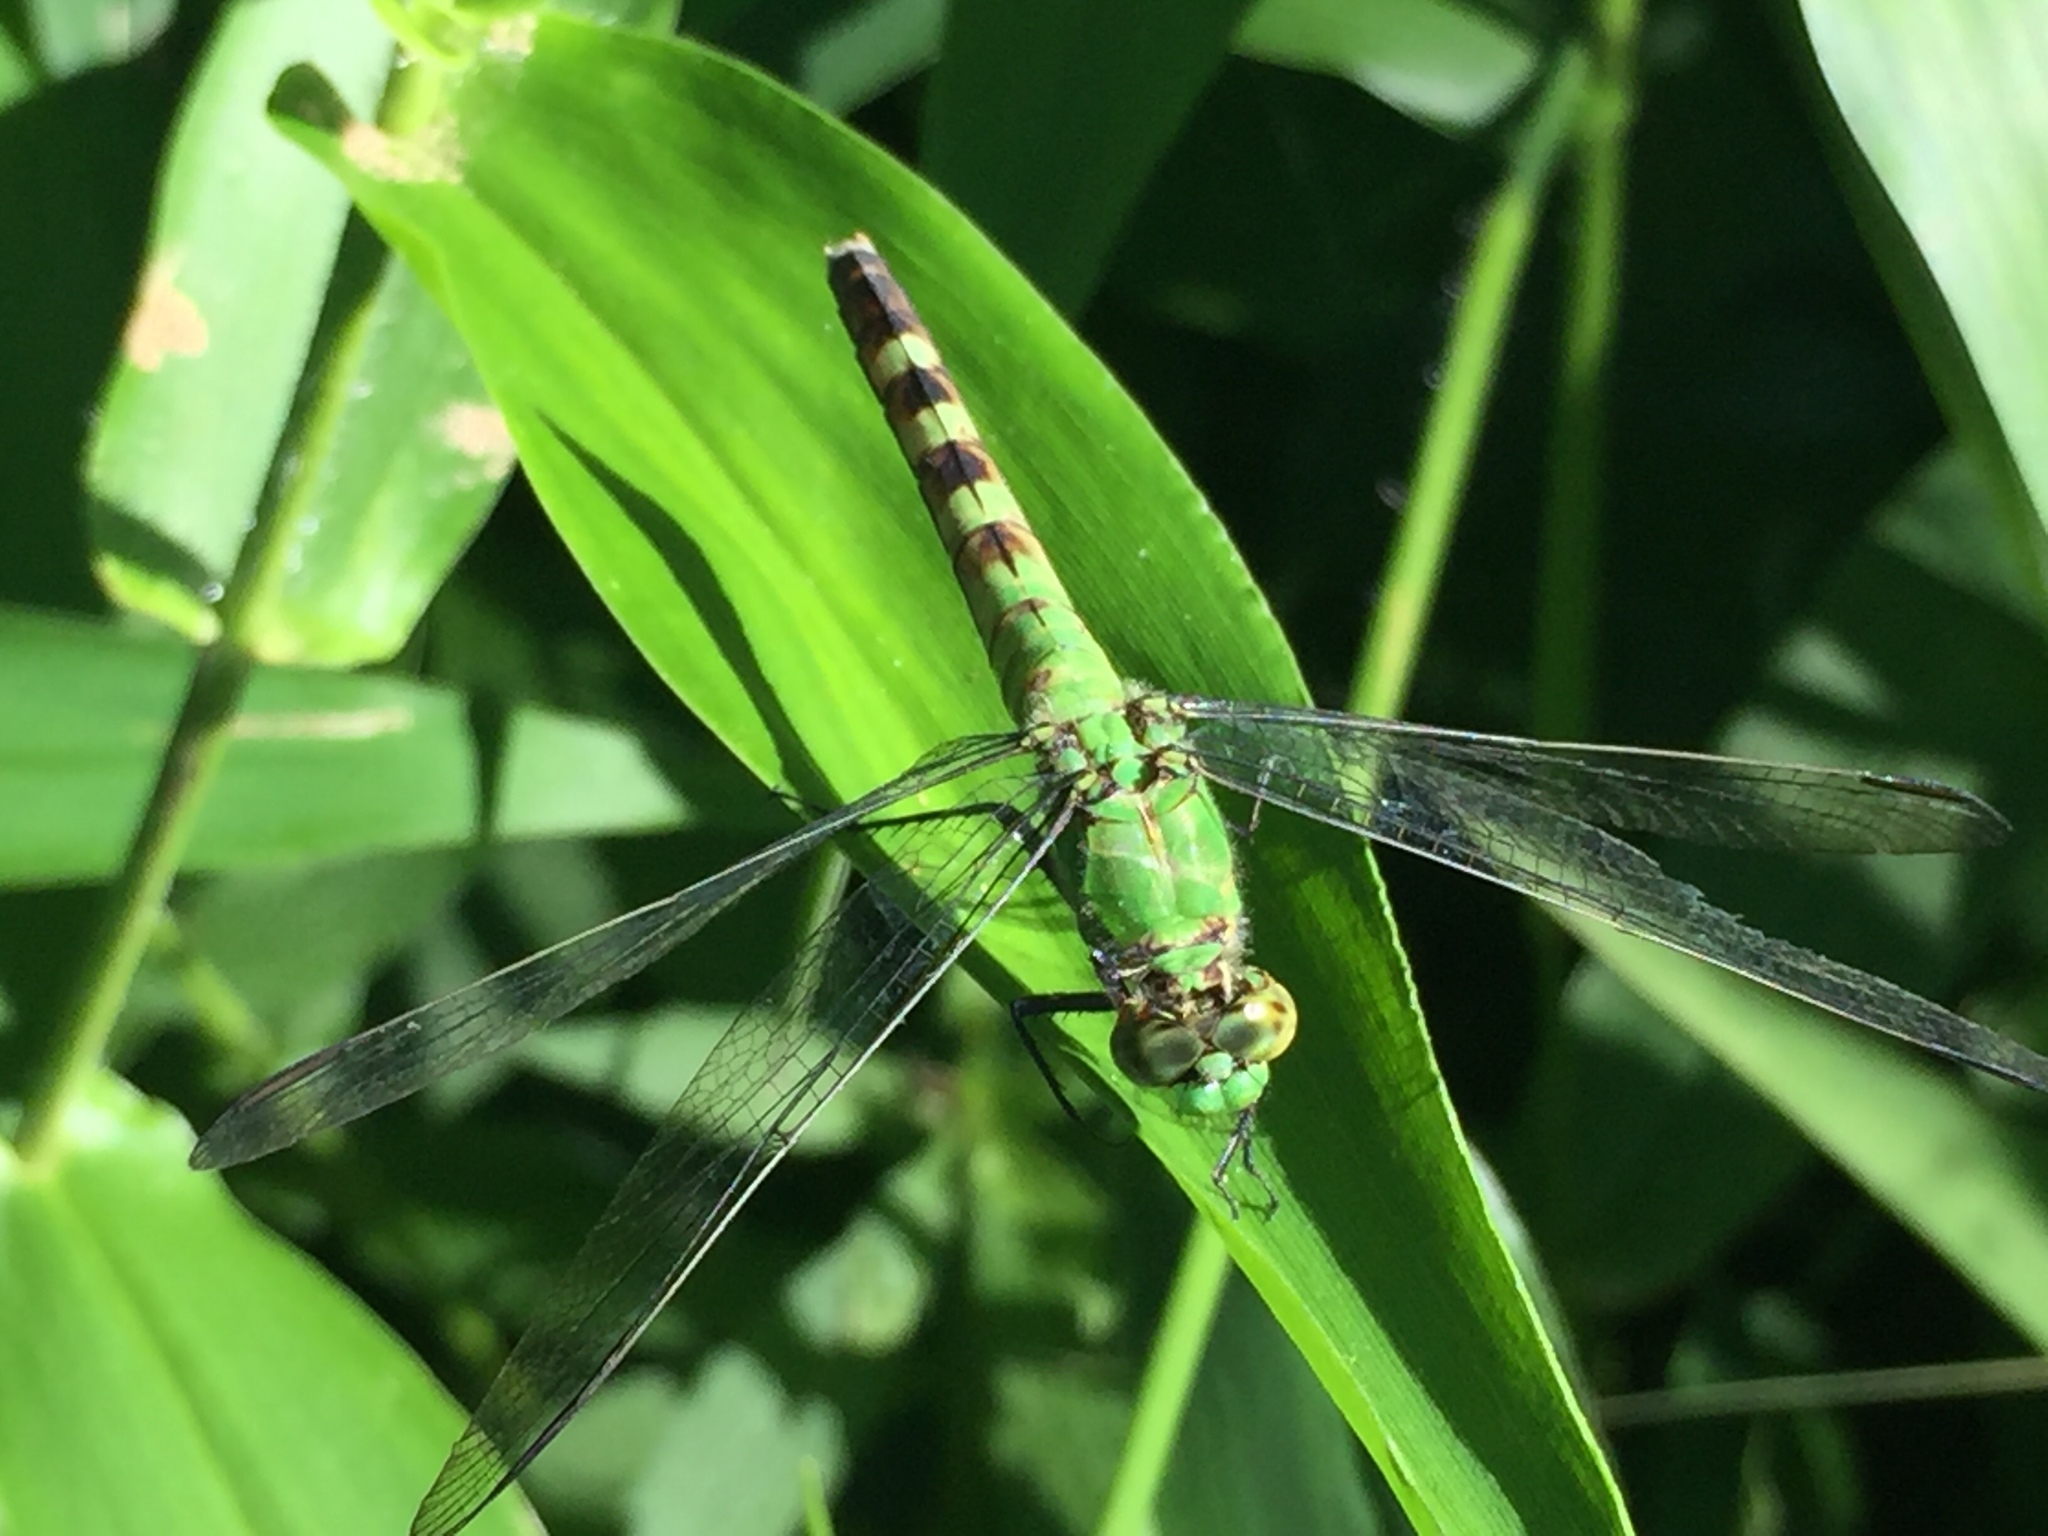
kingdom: Animalia
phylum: Arthropoda
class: Insecta
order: Odonata
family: Libellulidae
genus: Erythemis
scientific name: Erythemis simplicicollis
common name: Eastern pondhawk
